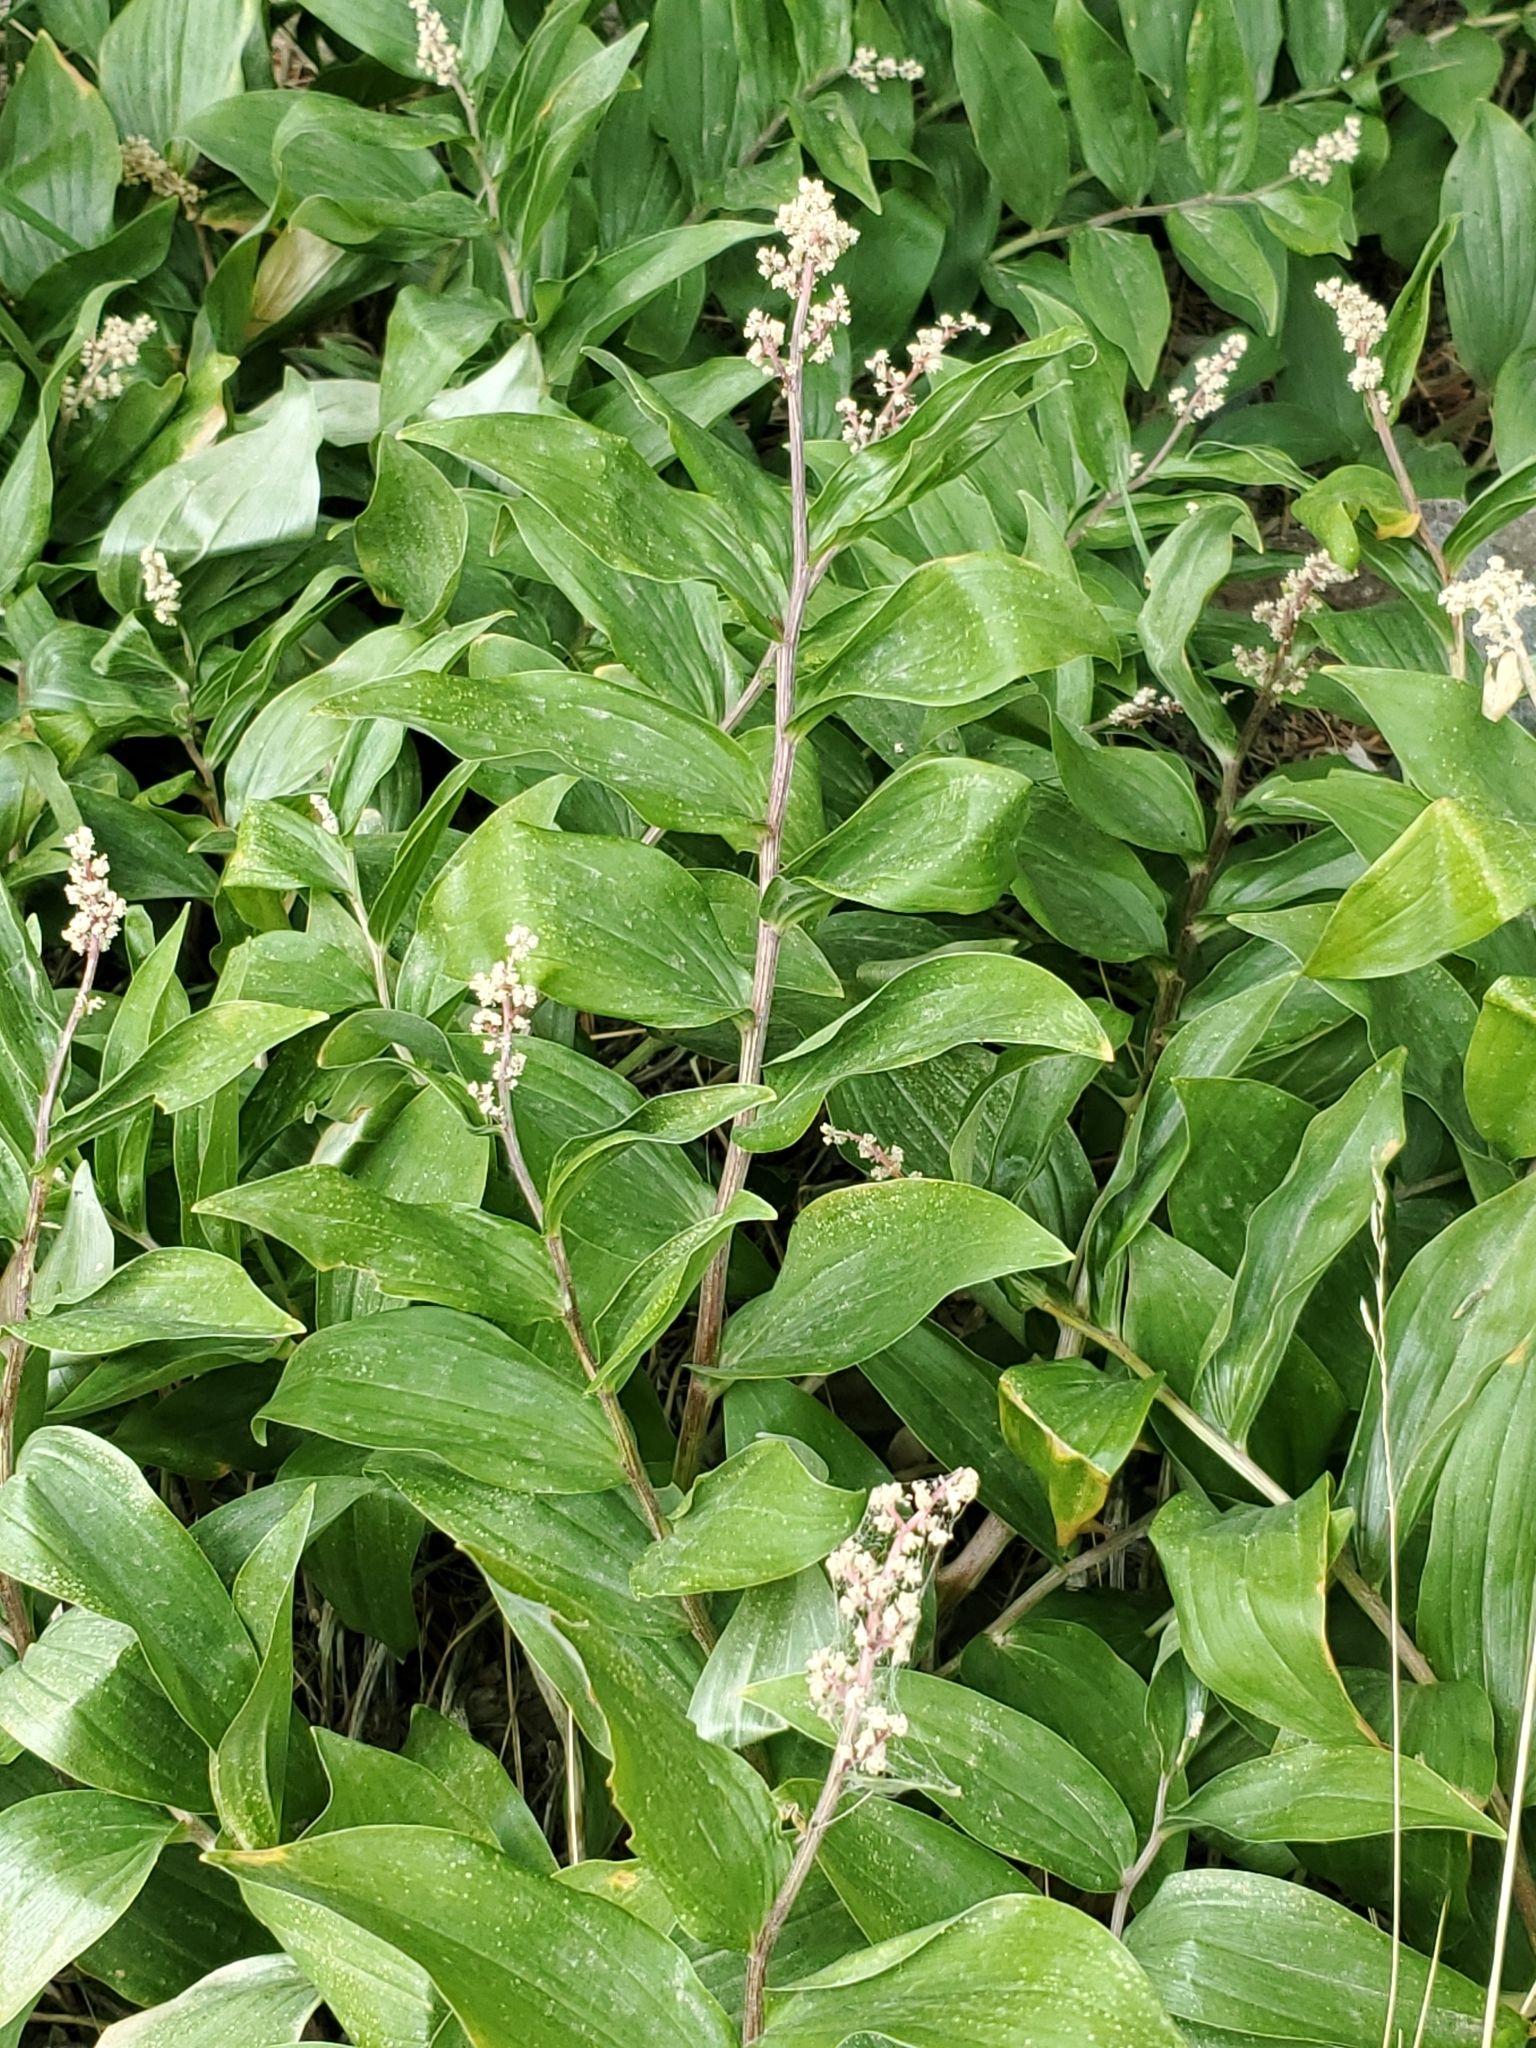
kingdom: Plantae
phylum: Tracheophyta
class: Liliopsida
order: Asparagales
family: Asparagaceae
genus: Maianthemum
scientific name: Maianthemum racemosum
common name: False spikenard
